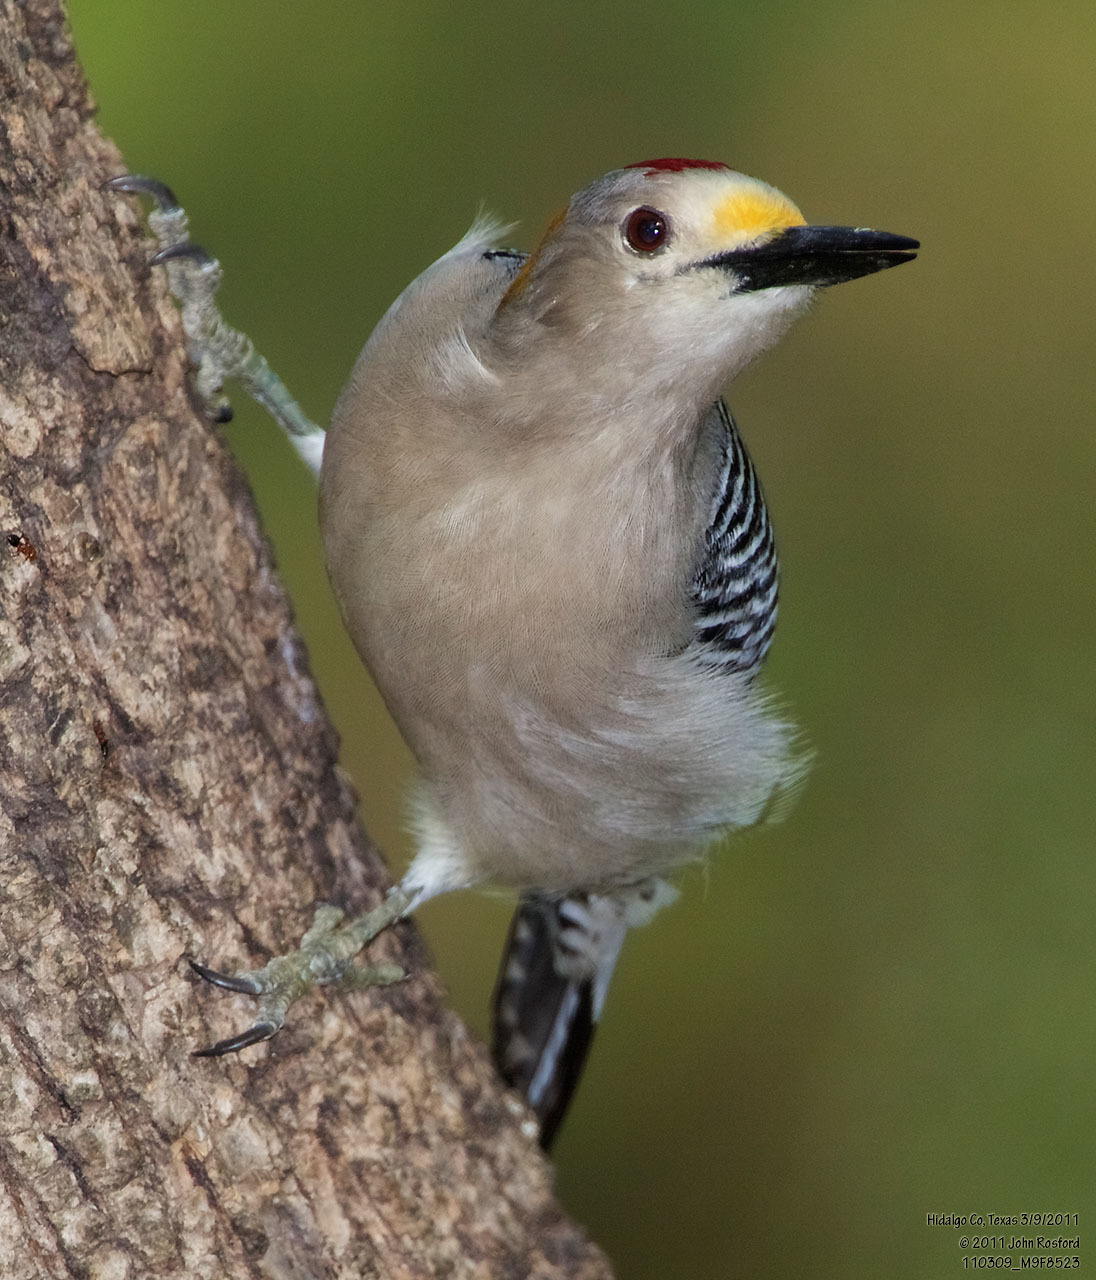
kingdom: Animalia
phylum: Chordata
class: Aves
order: Piciformes
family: Picidae
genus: Melanerpes
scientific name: Melanerpes aurifrons
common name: Golden-fronted woodpecker
